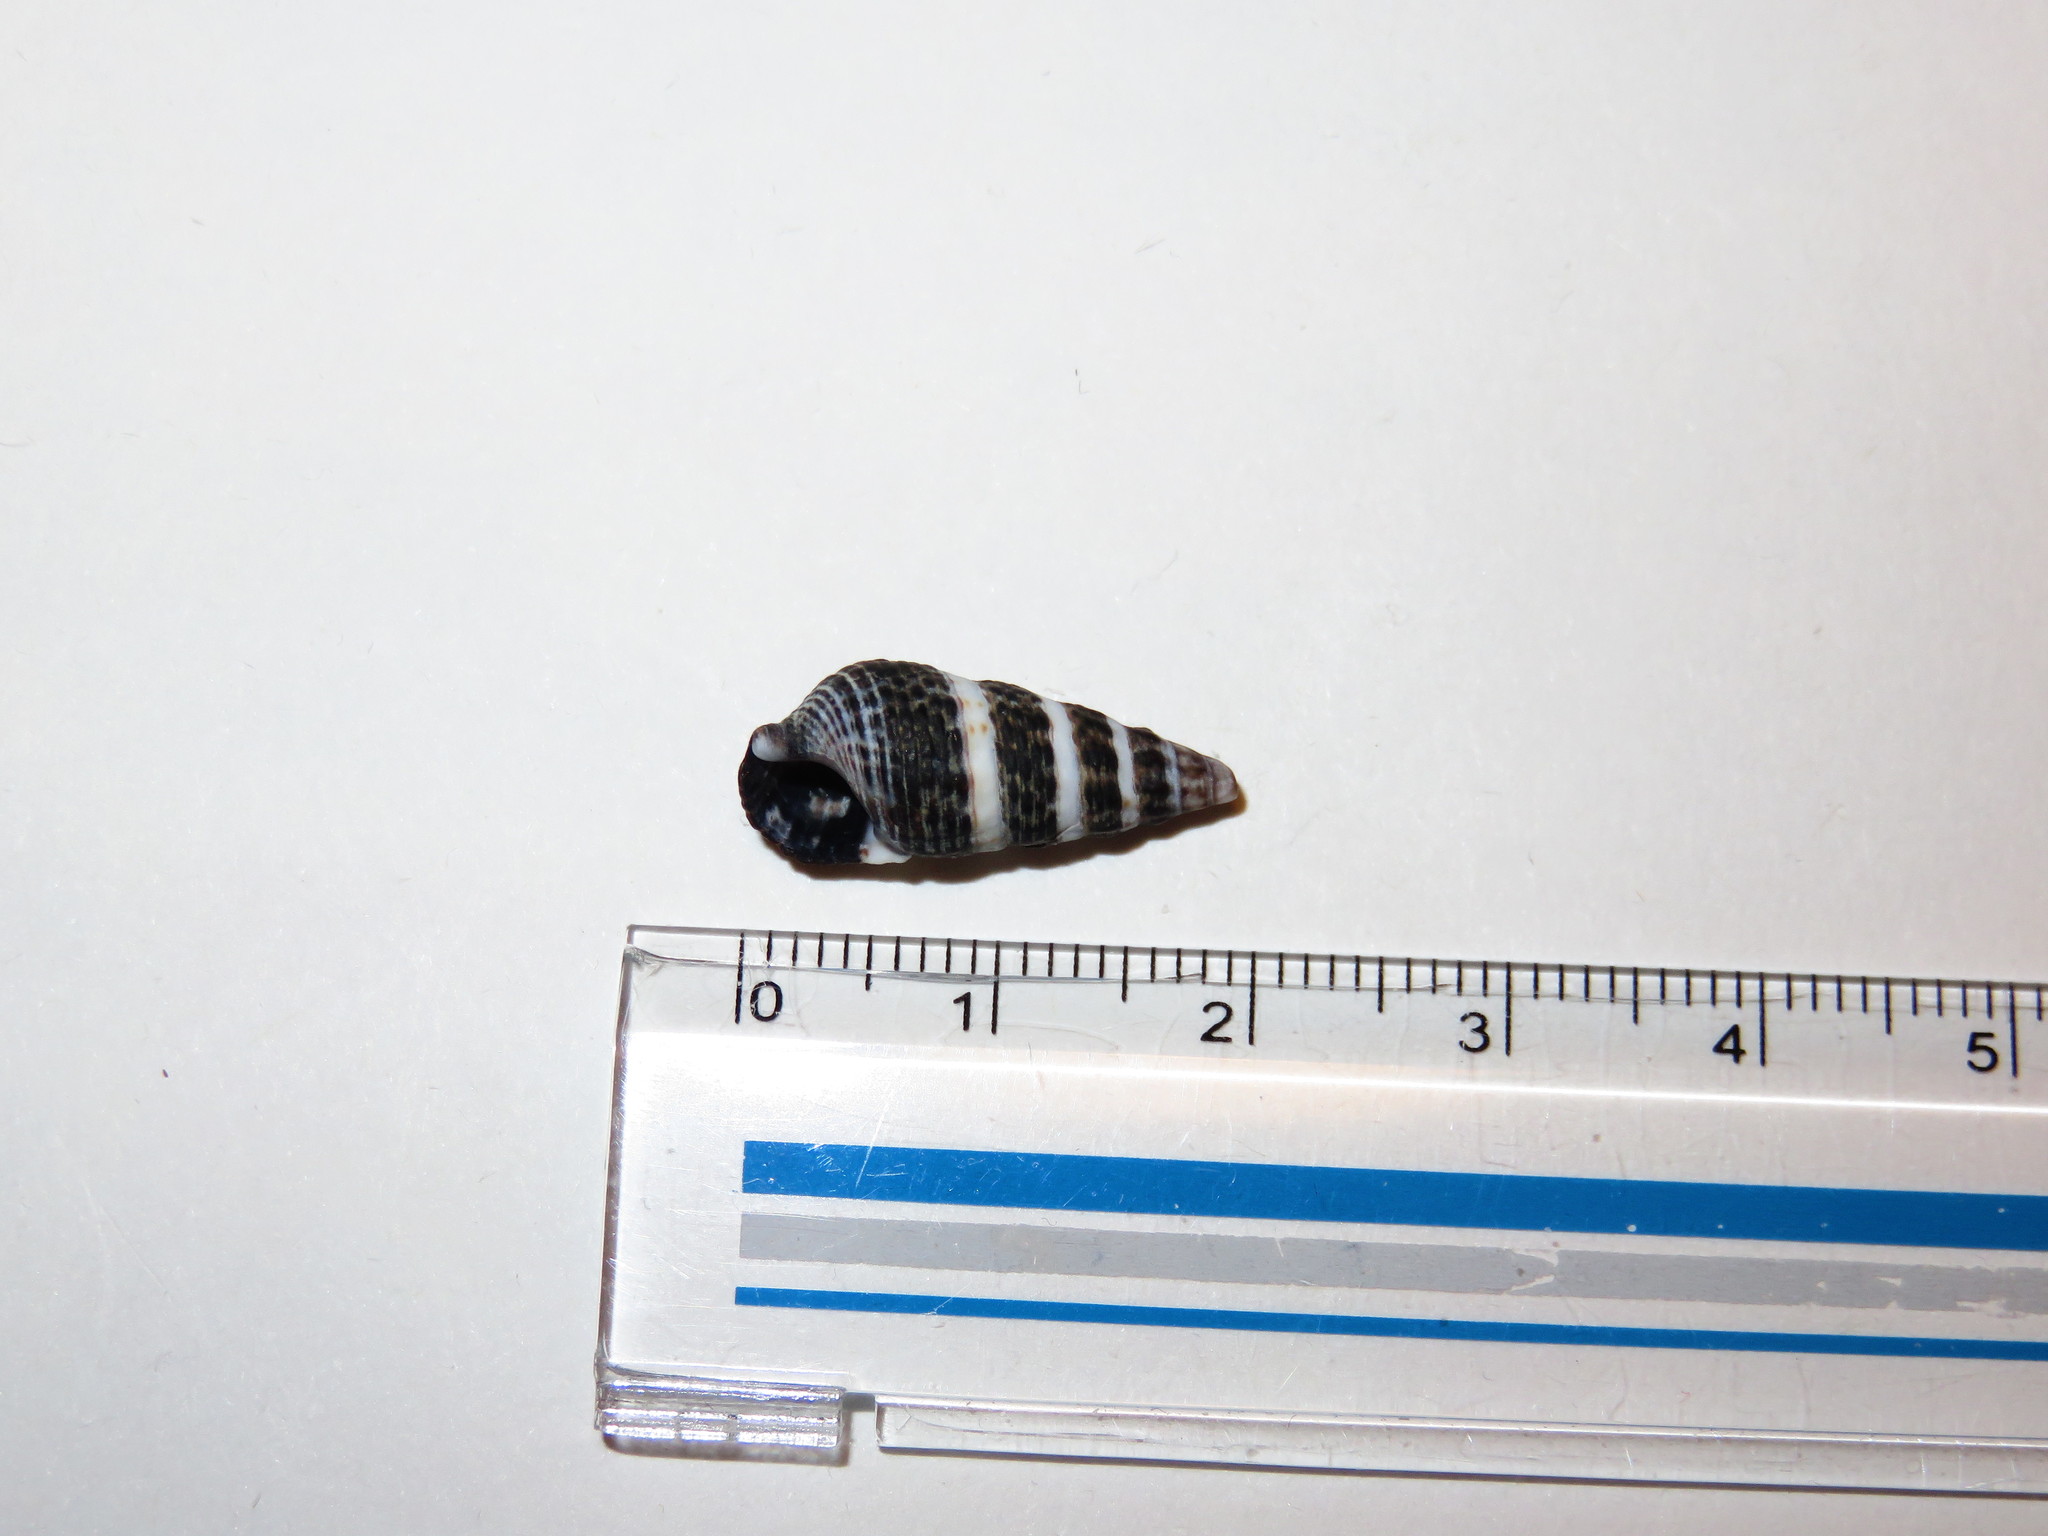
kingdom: Animalia
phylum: Mollusca
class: Gastropoda
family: Batillariidae
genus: Batillaria
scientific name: Batillaria attramentaria
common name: Japanese false cerith
